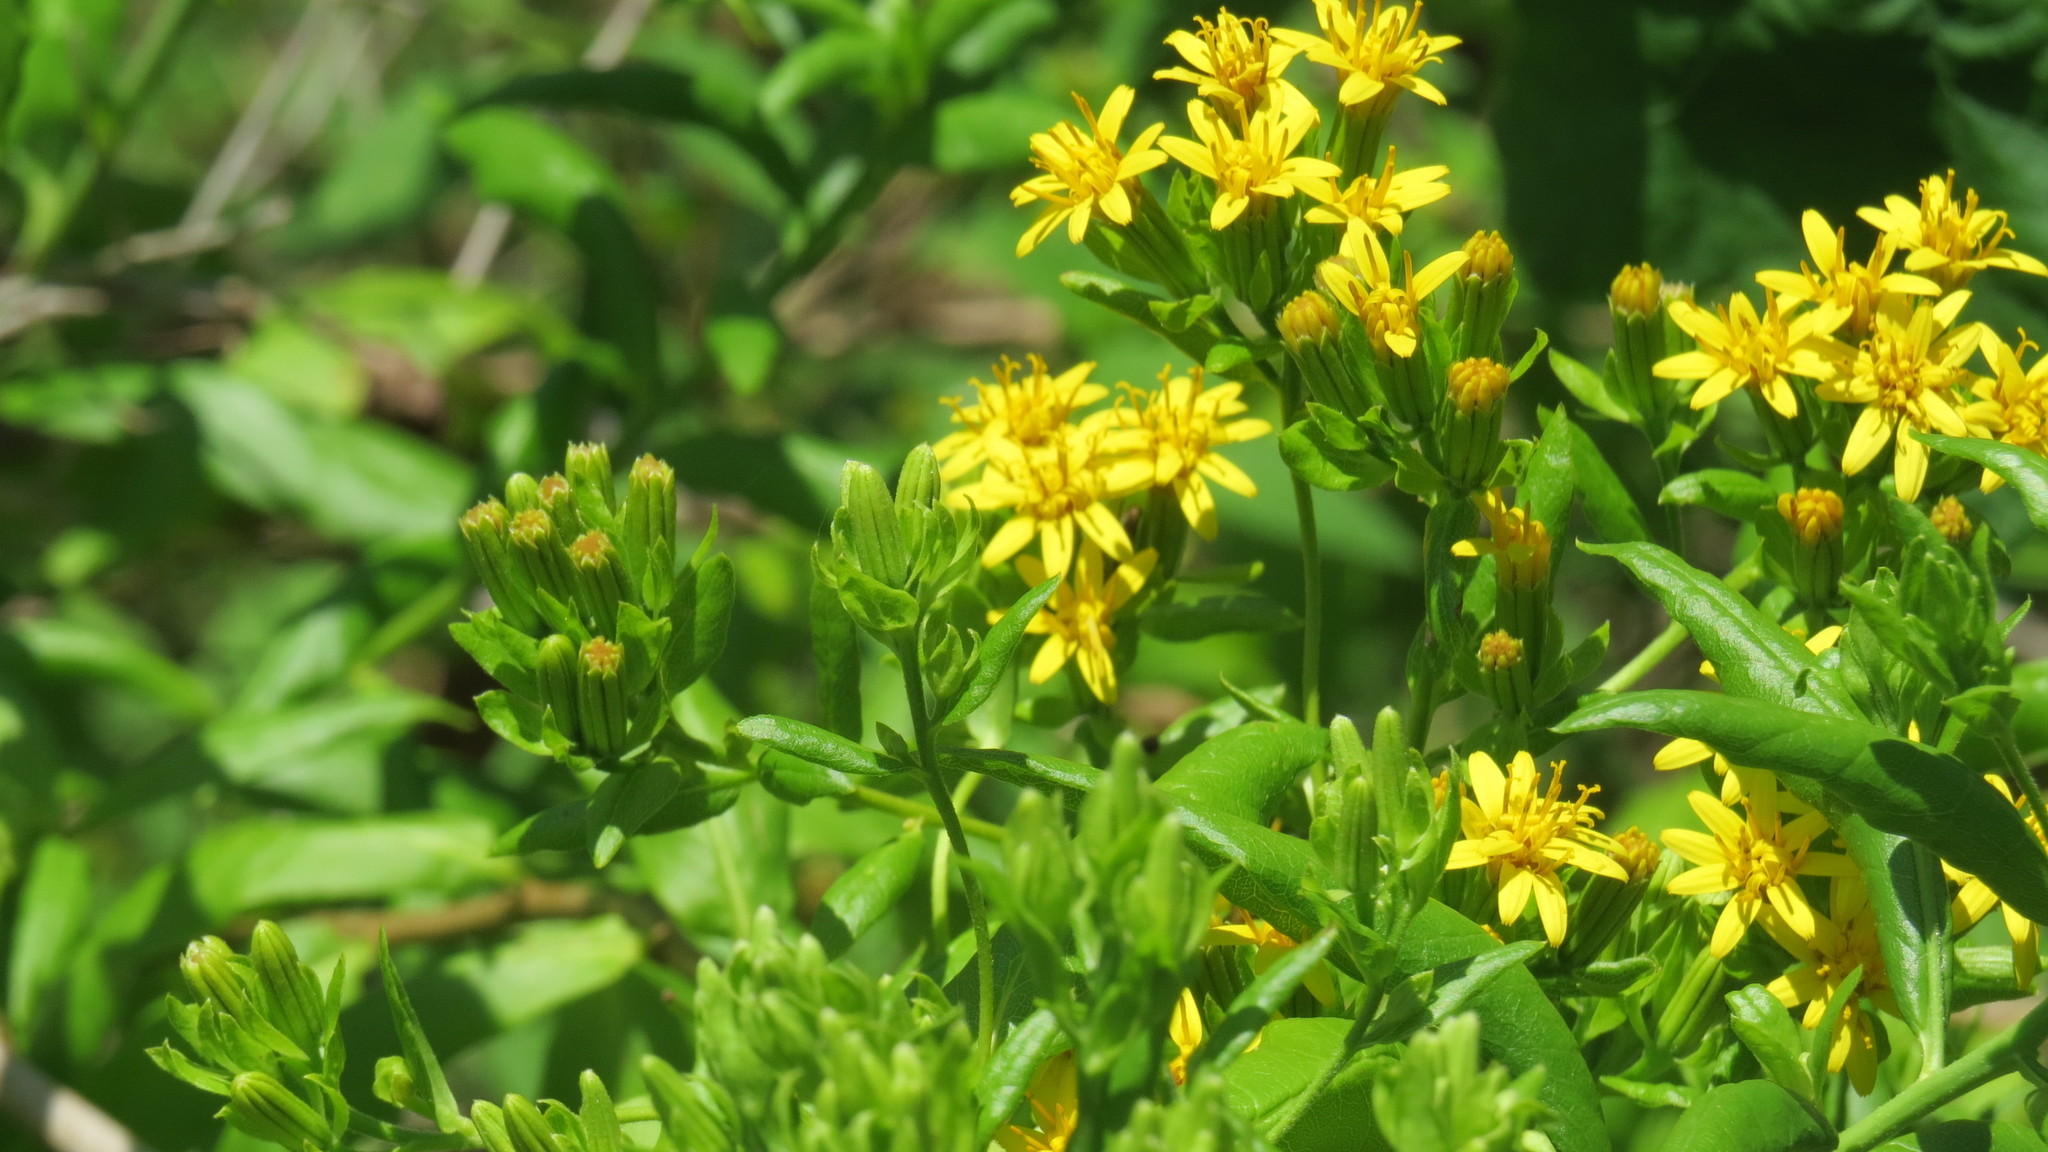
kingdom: Plantae
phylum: Tracheophyta
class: Magnoliopsida
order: Asterales
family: Asteraceae
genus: Trixis
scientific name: Trixis inula
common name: Tropical threefold
